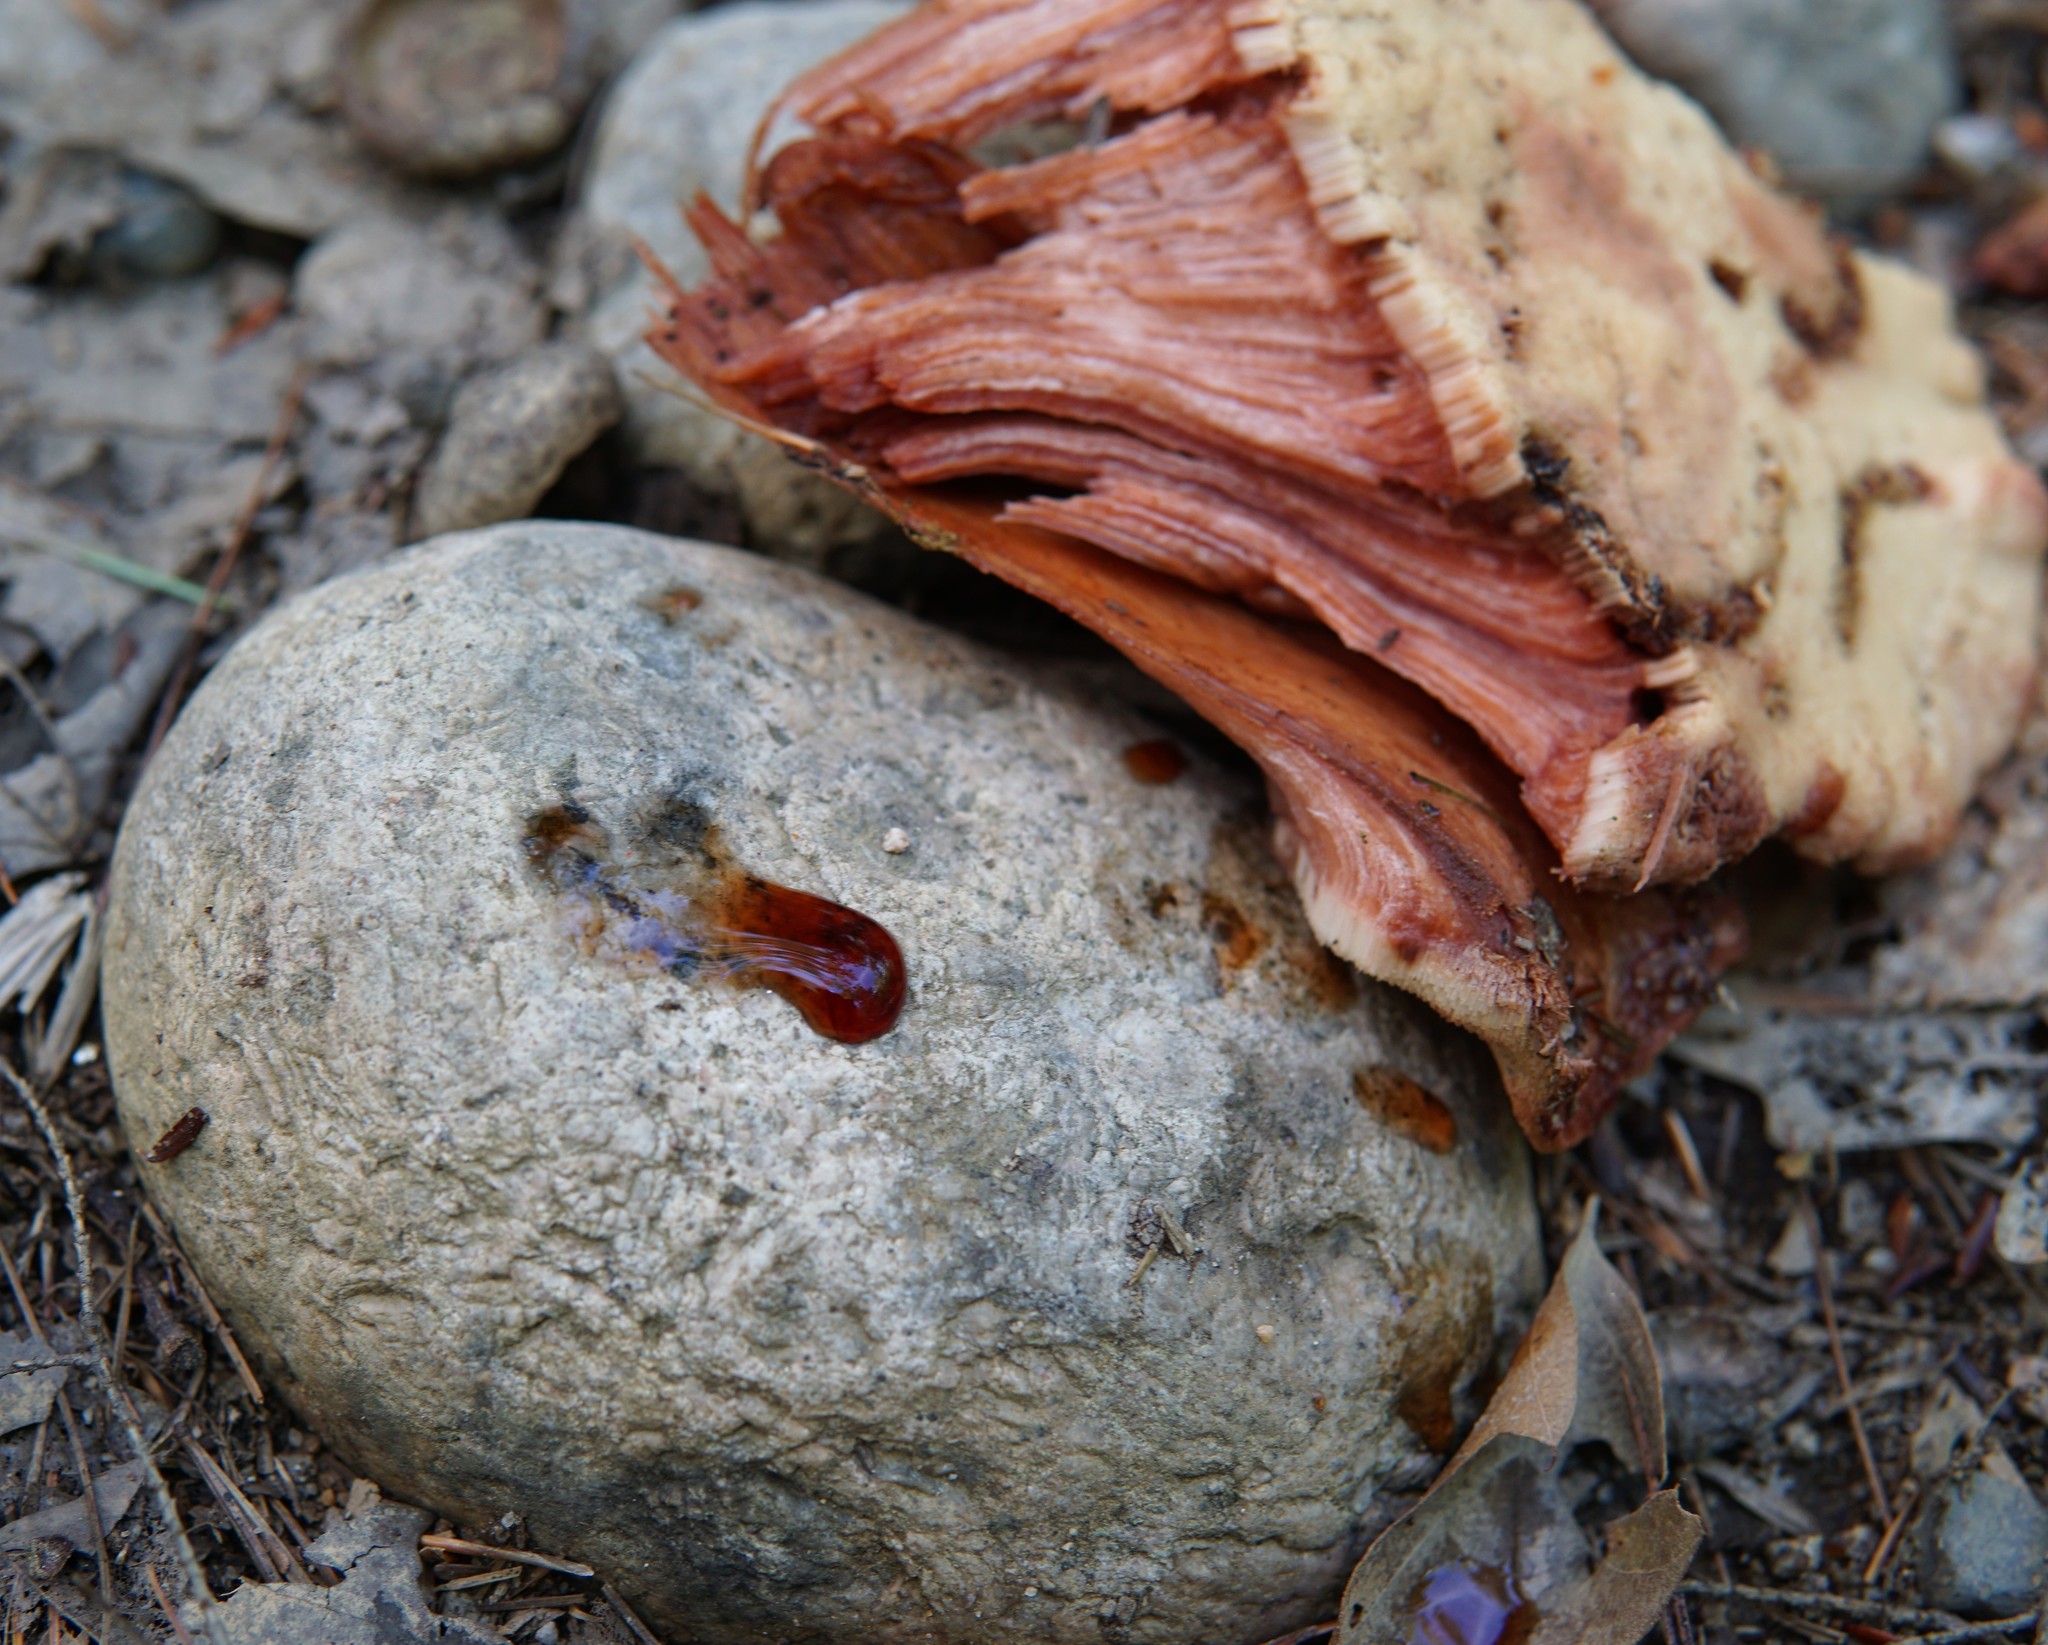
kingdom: Fungi
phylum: Basidiomycota
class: Agaricomycetes
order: Agaricales
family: Fistulinaceae
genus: Fistulina
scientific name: Fistulina hepatica
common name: Beef-steak fungus
